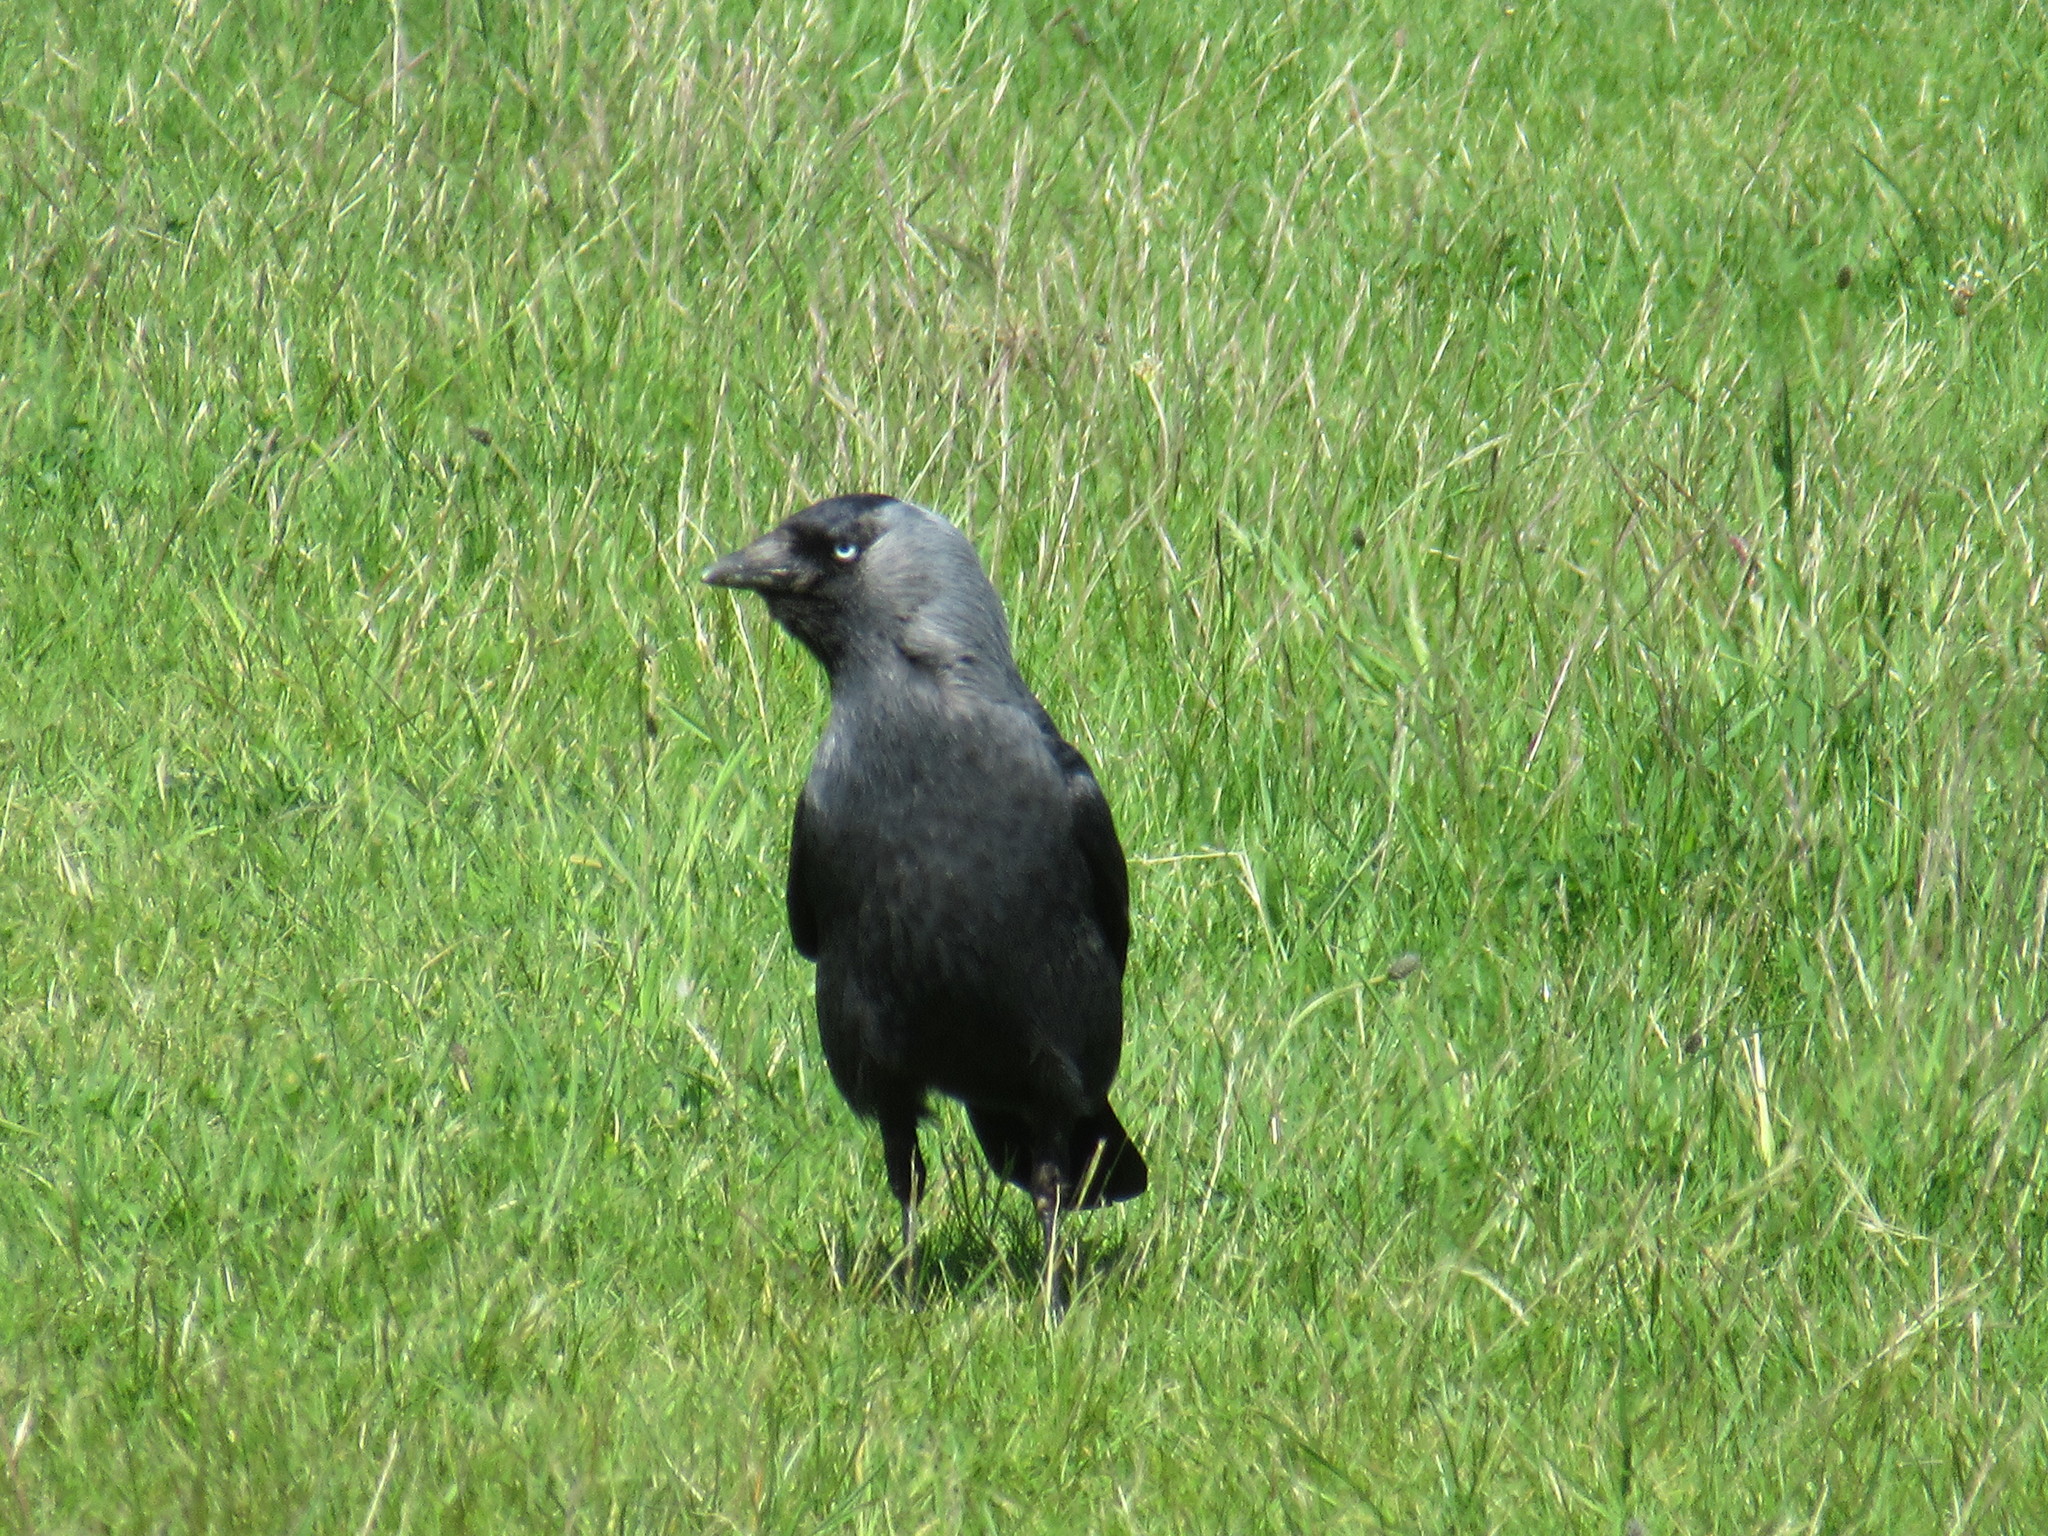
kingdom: Animalia
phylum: Chordata
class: Aves
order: Passeriformes
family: Corvidae
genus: Coloeus
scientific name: Coloeus monedula
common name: Western jackdaw
